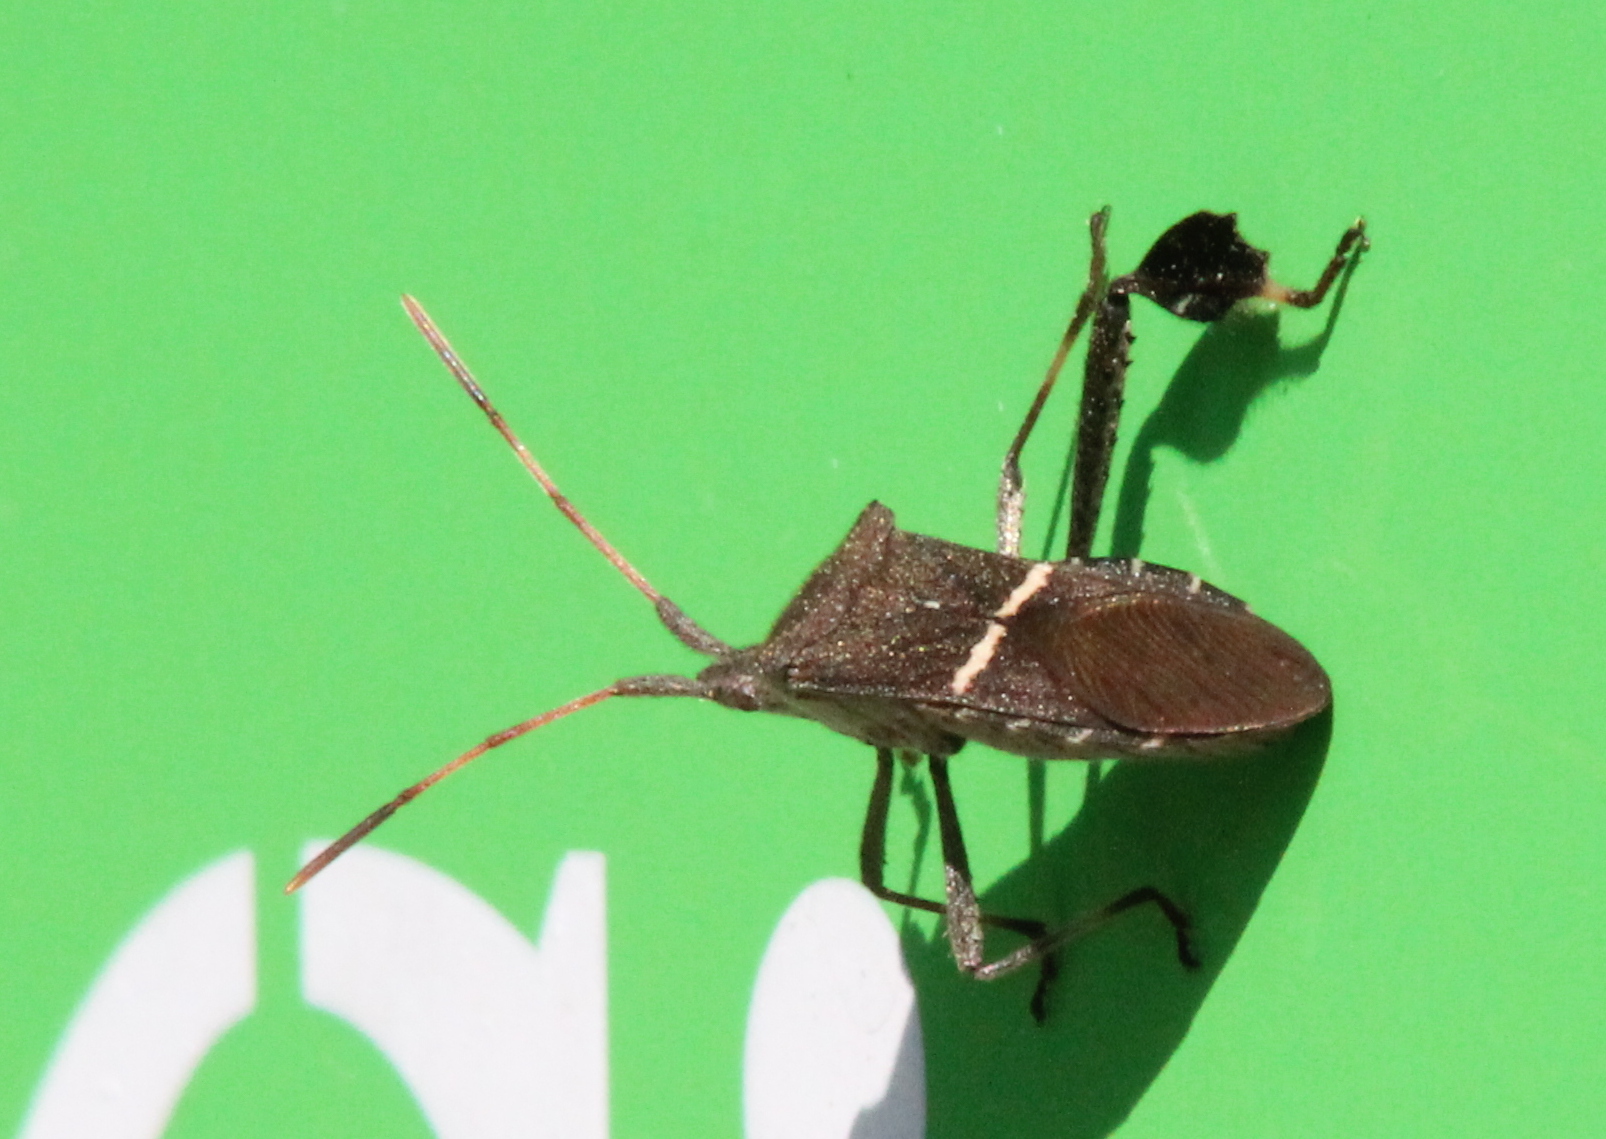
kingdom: Animalia
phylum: Arthropoda
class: Insecta
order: Hemiptera
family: Coreidae
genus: Leptoglossus
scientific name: Leptoglossus phyllopus
